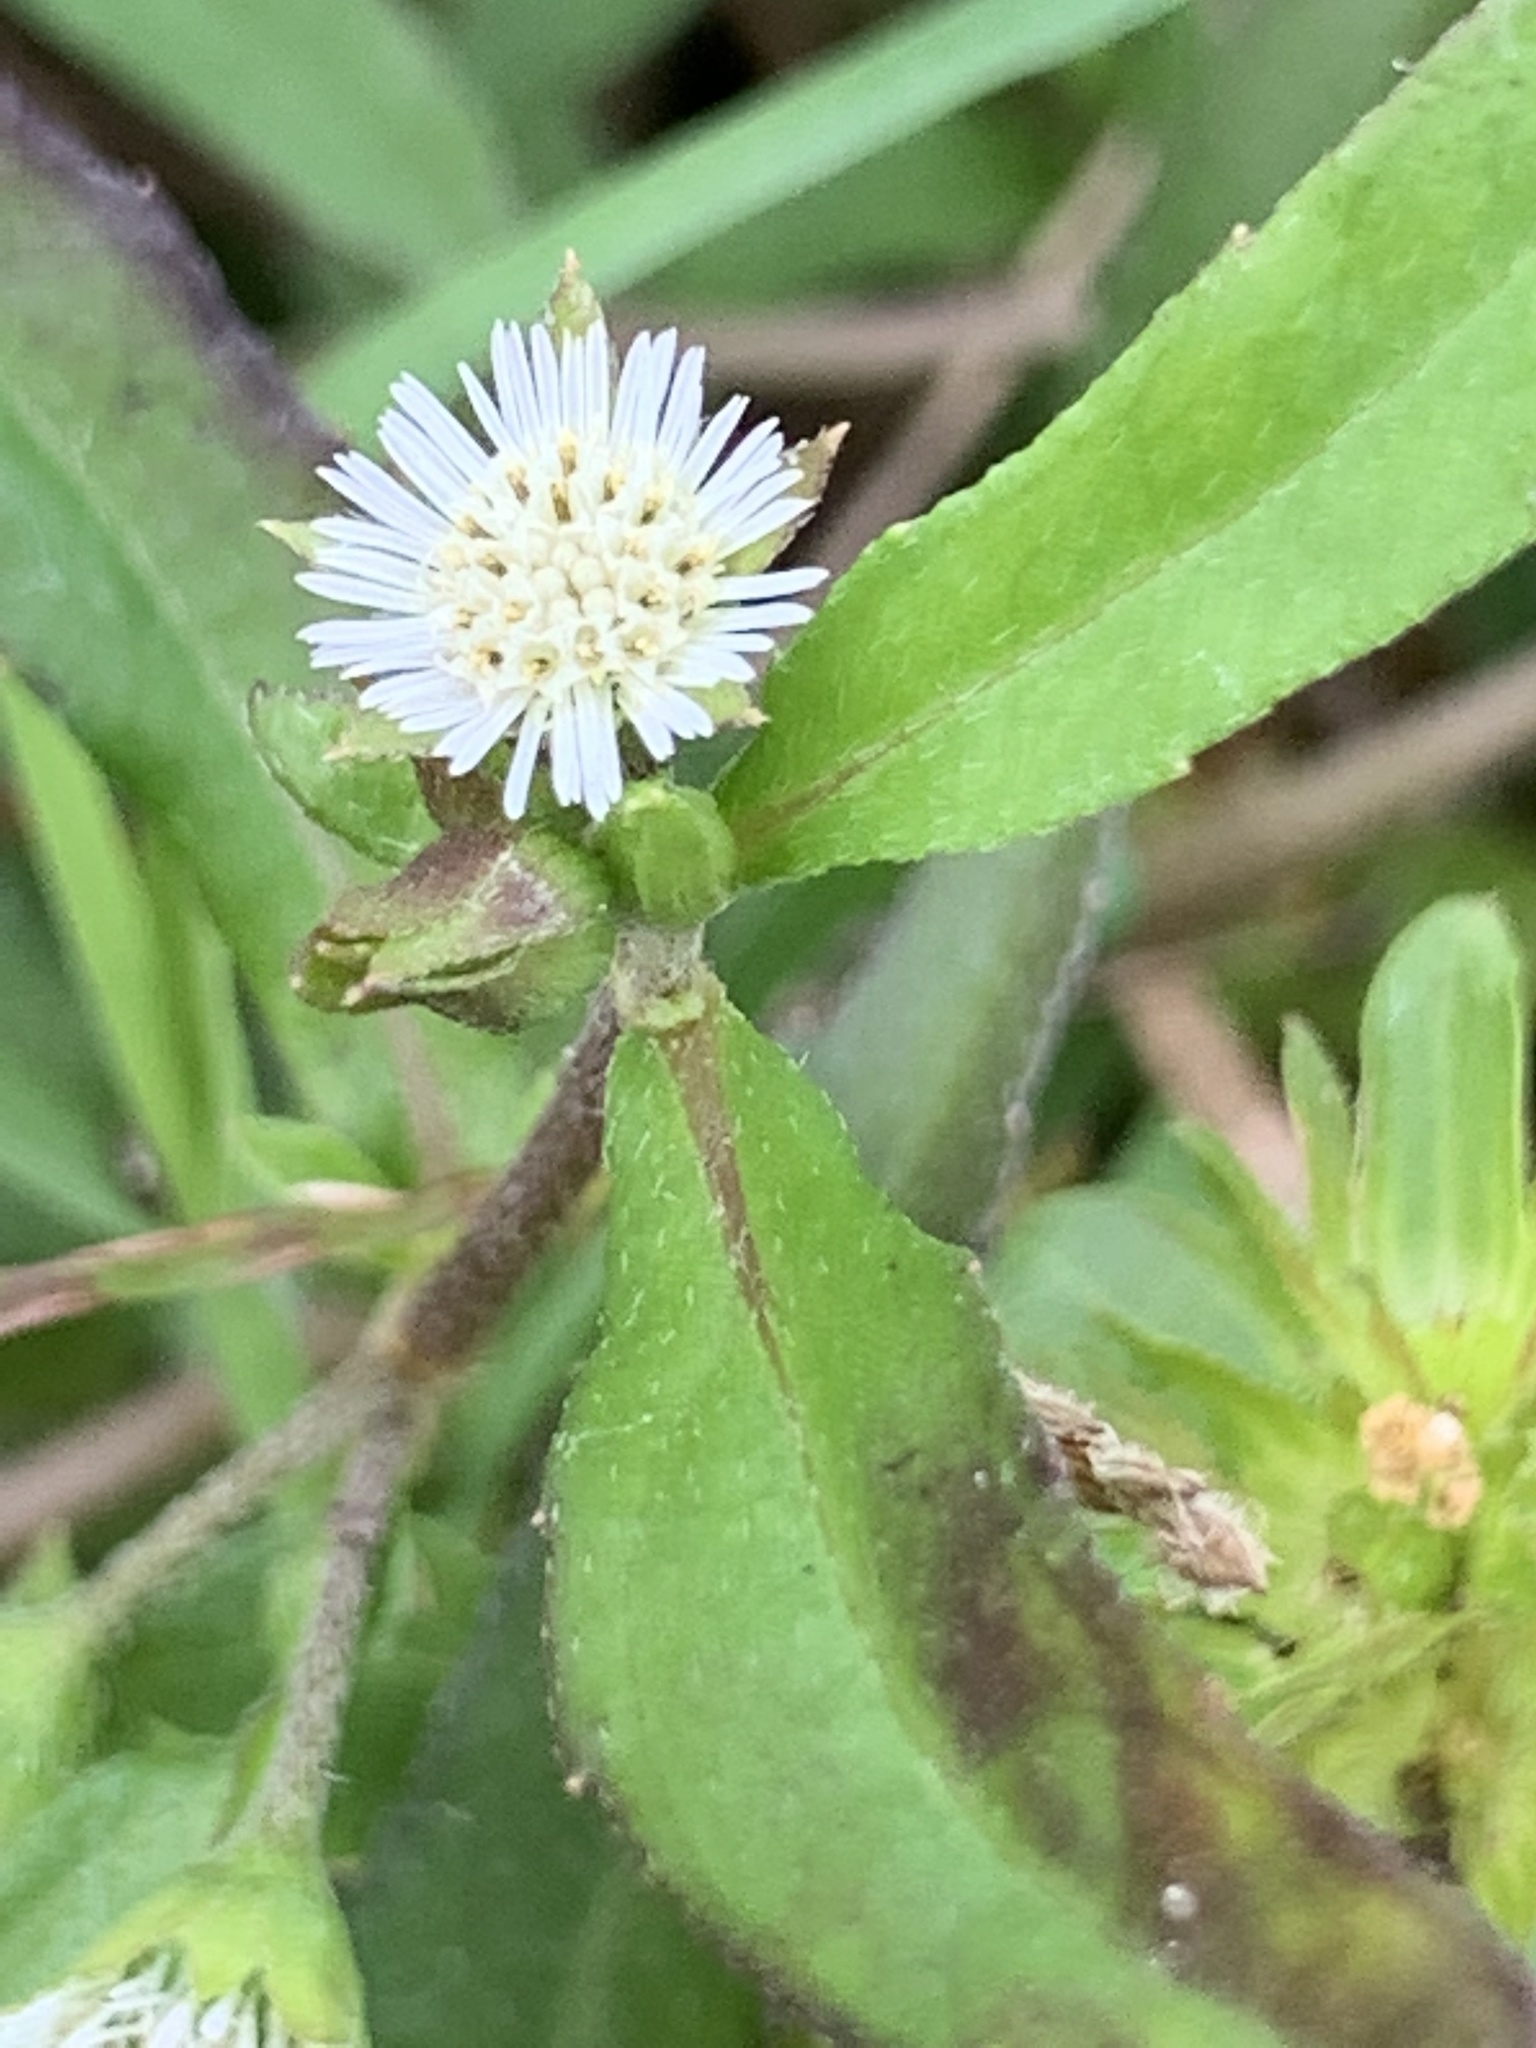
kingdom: Plantae
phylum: Tracheophyta
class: Magnoliopsida
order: Asterales
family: Asteraceae
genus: Eclipta
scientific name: Eclipta prostrata
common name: False daisy
